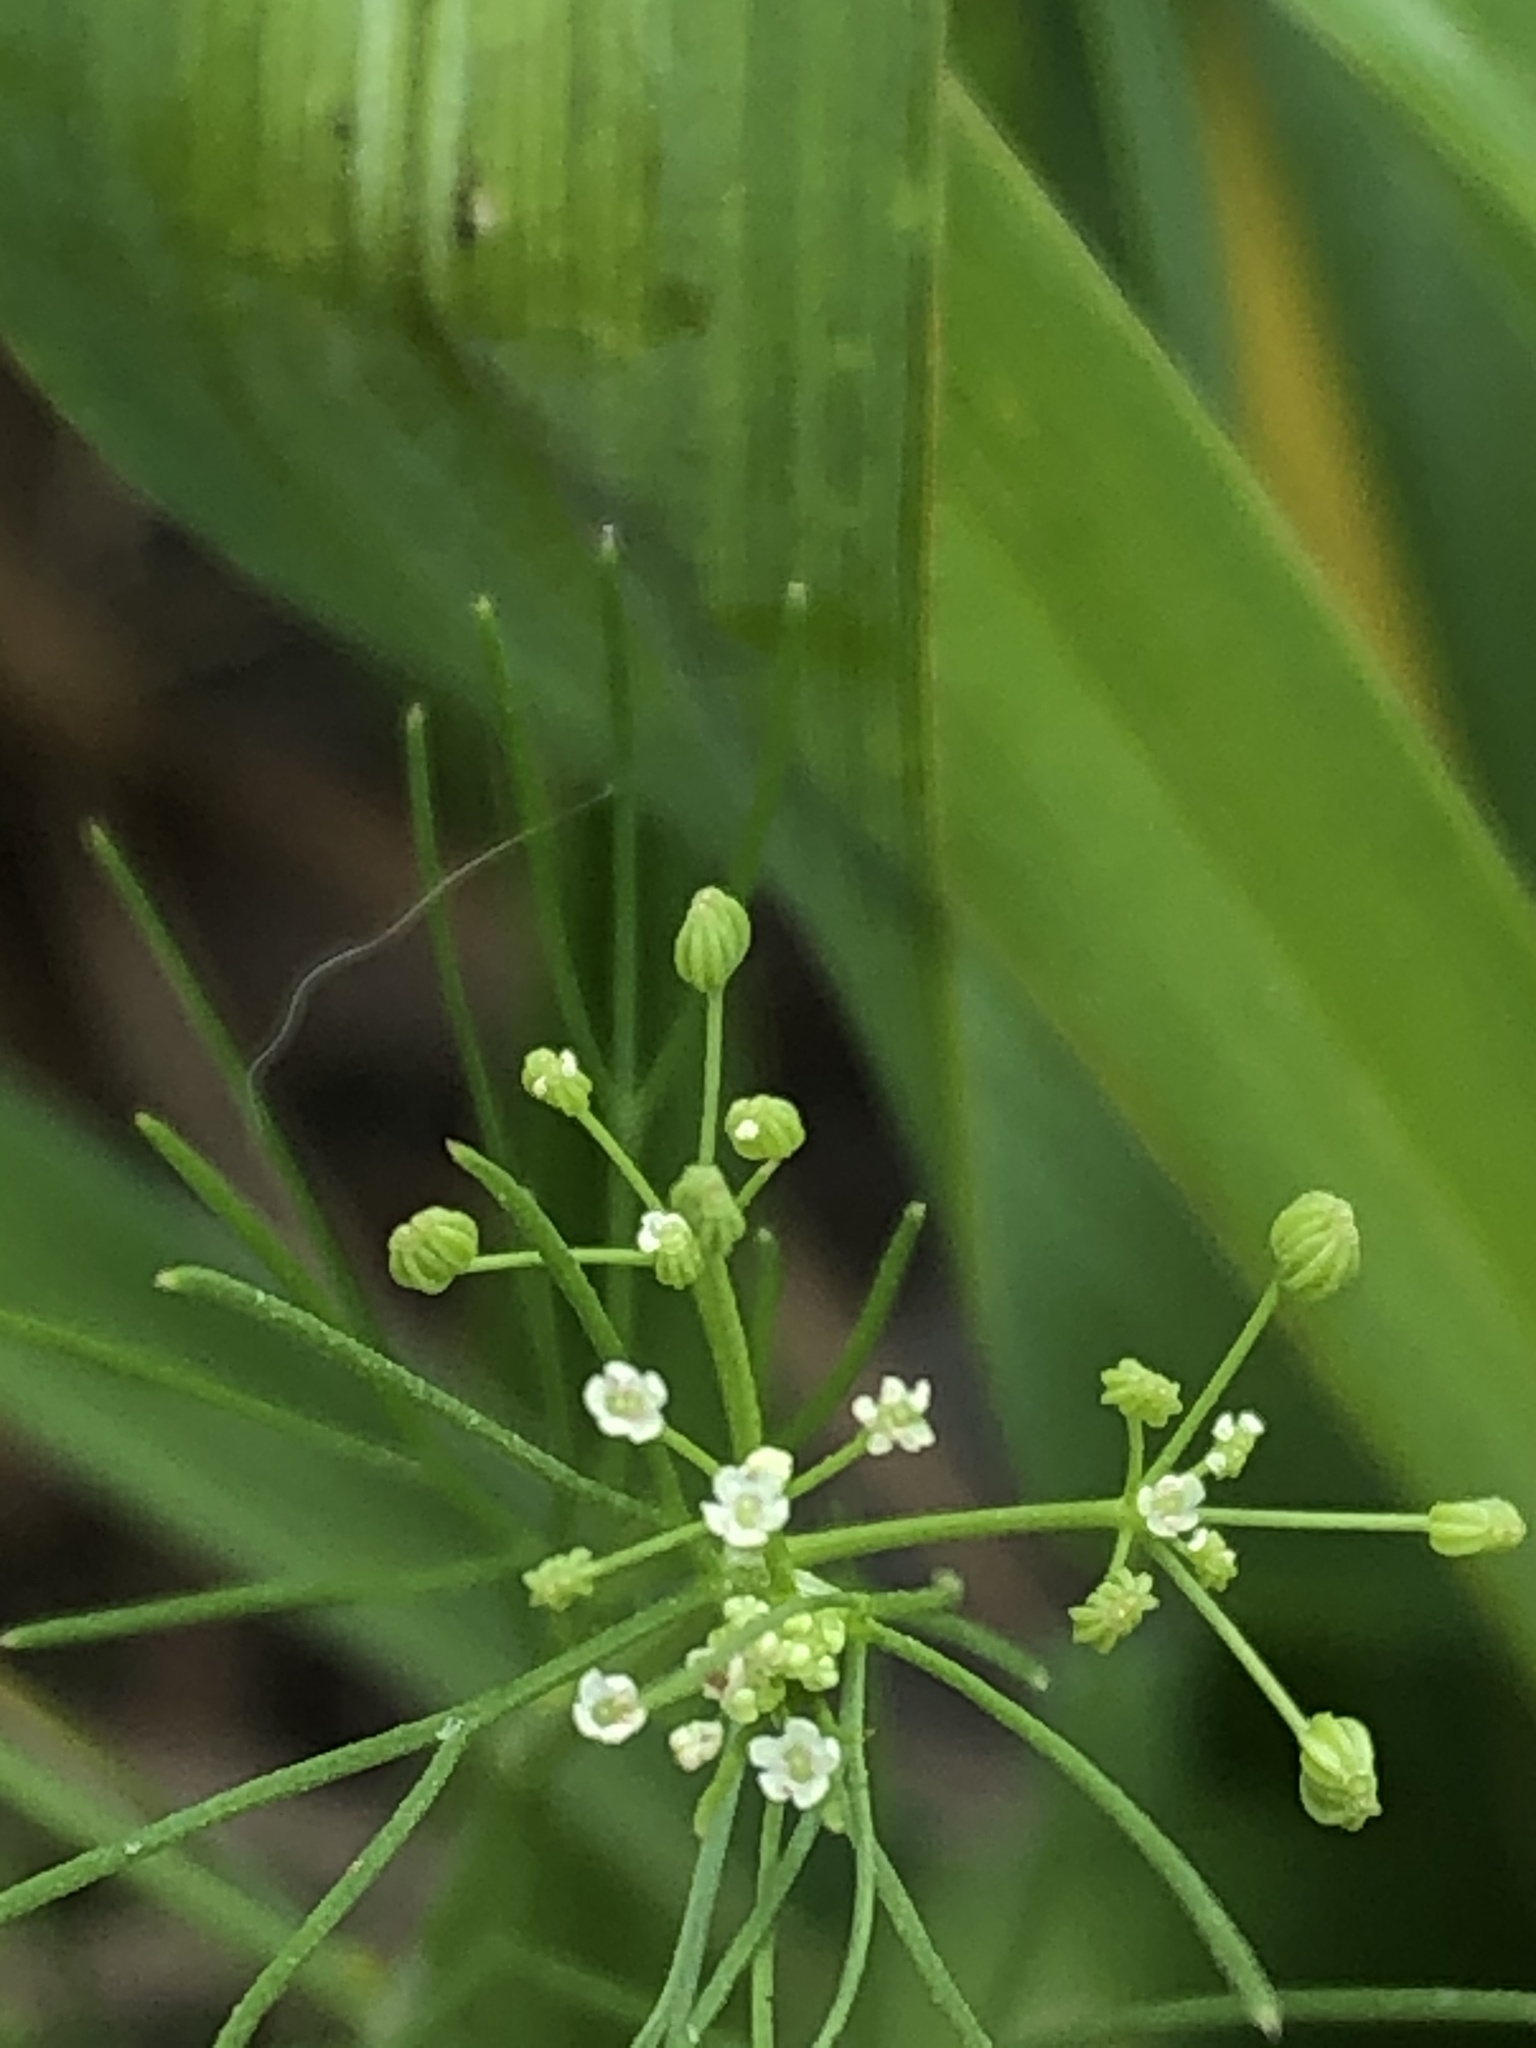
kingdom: Plantae
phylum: Tracheophyta
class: Magnoliopsida
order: Apiales
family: Apiaceae
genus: Cyclospermum
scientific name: Cyclospermum laciniatum
